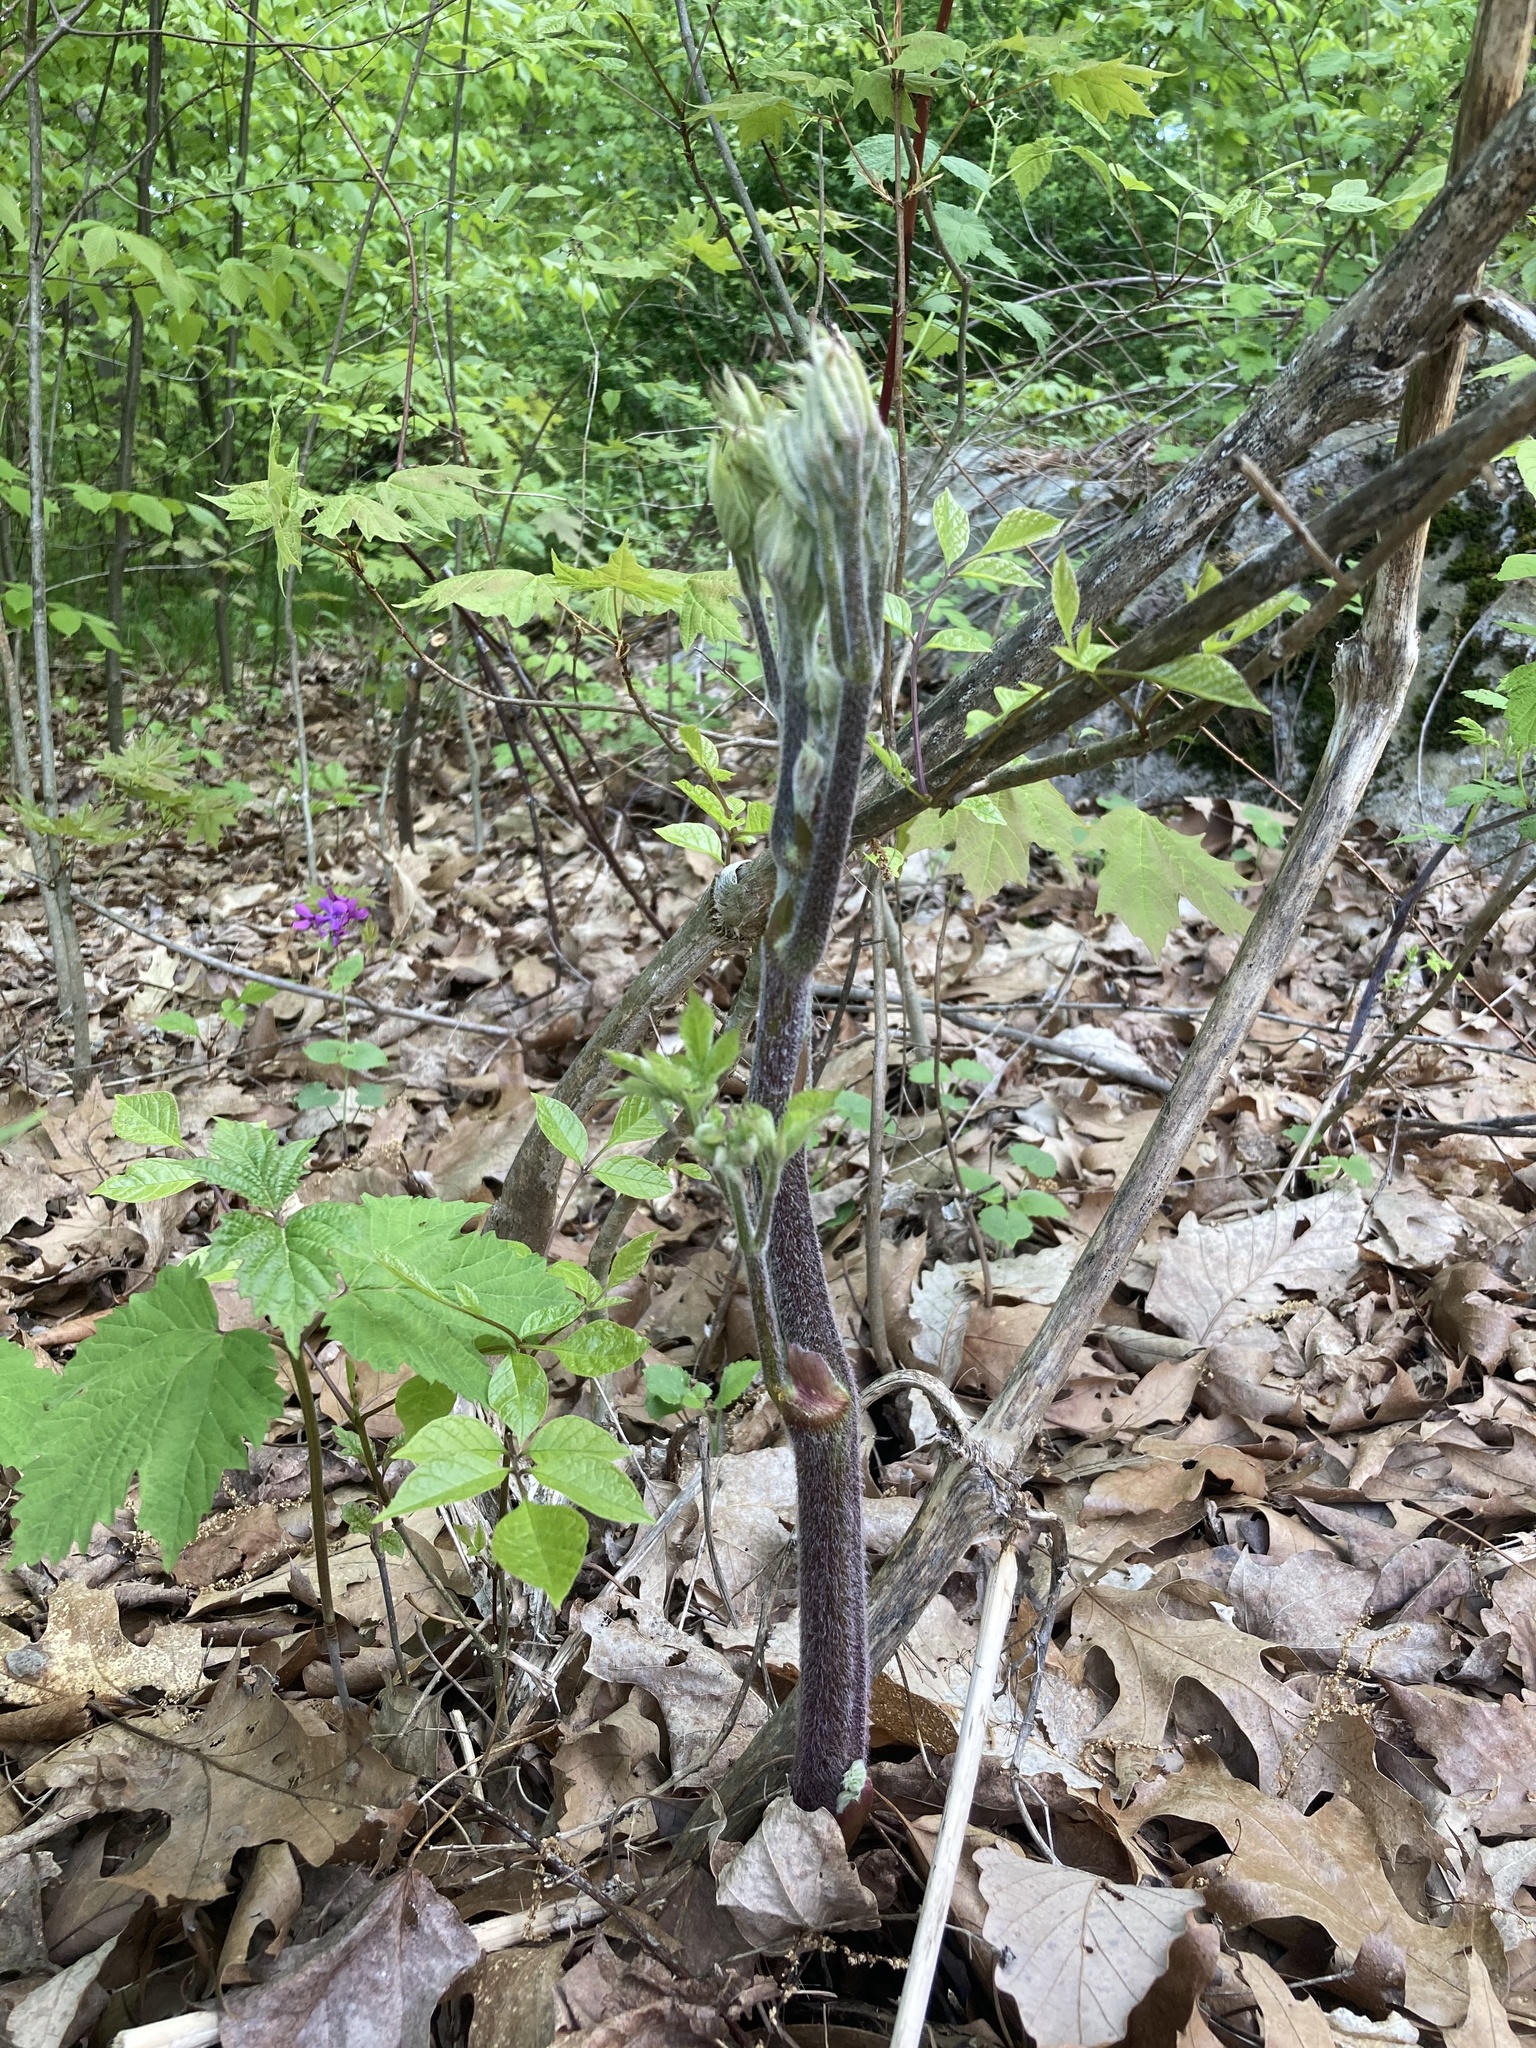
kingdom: Plantae
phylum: Tracheophyta
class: Magnoliopsida
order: Apiales
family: Araliaceae
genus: Aralia
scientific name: Aralia racemosa
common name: American-spikenard
